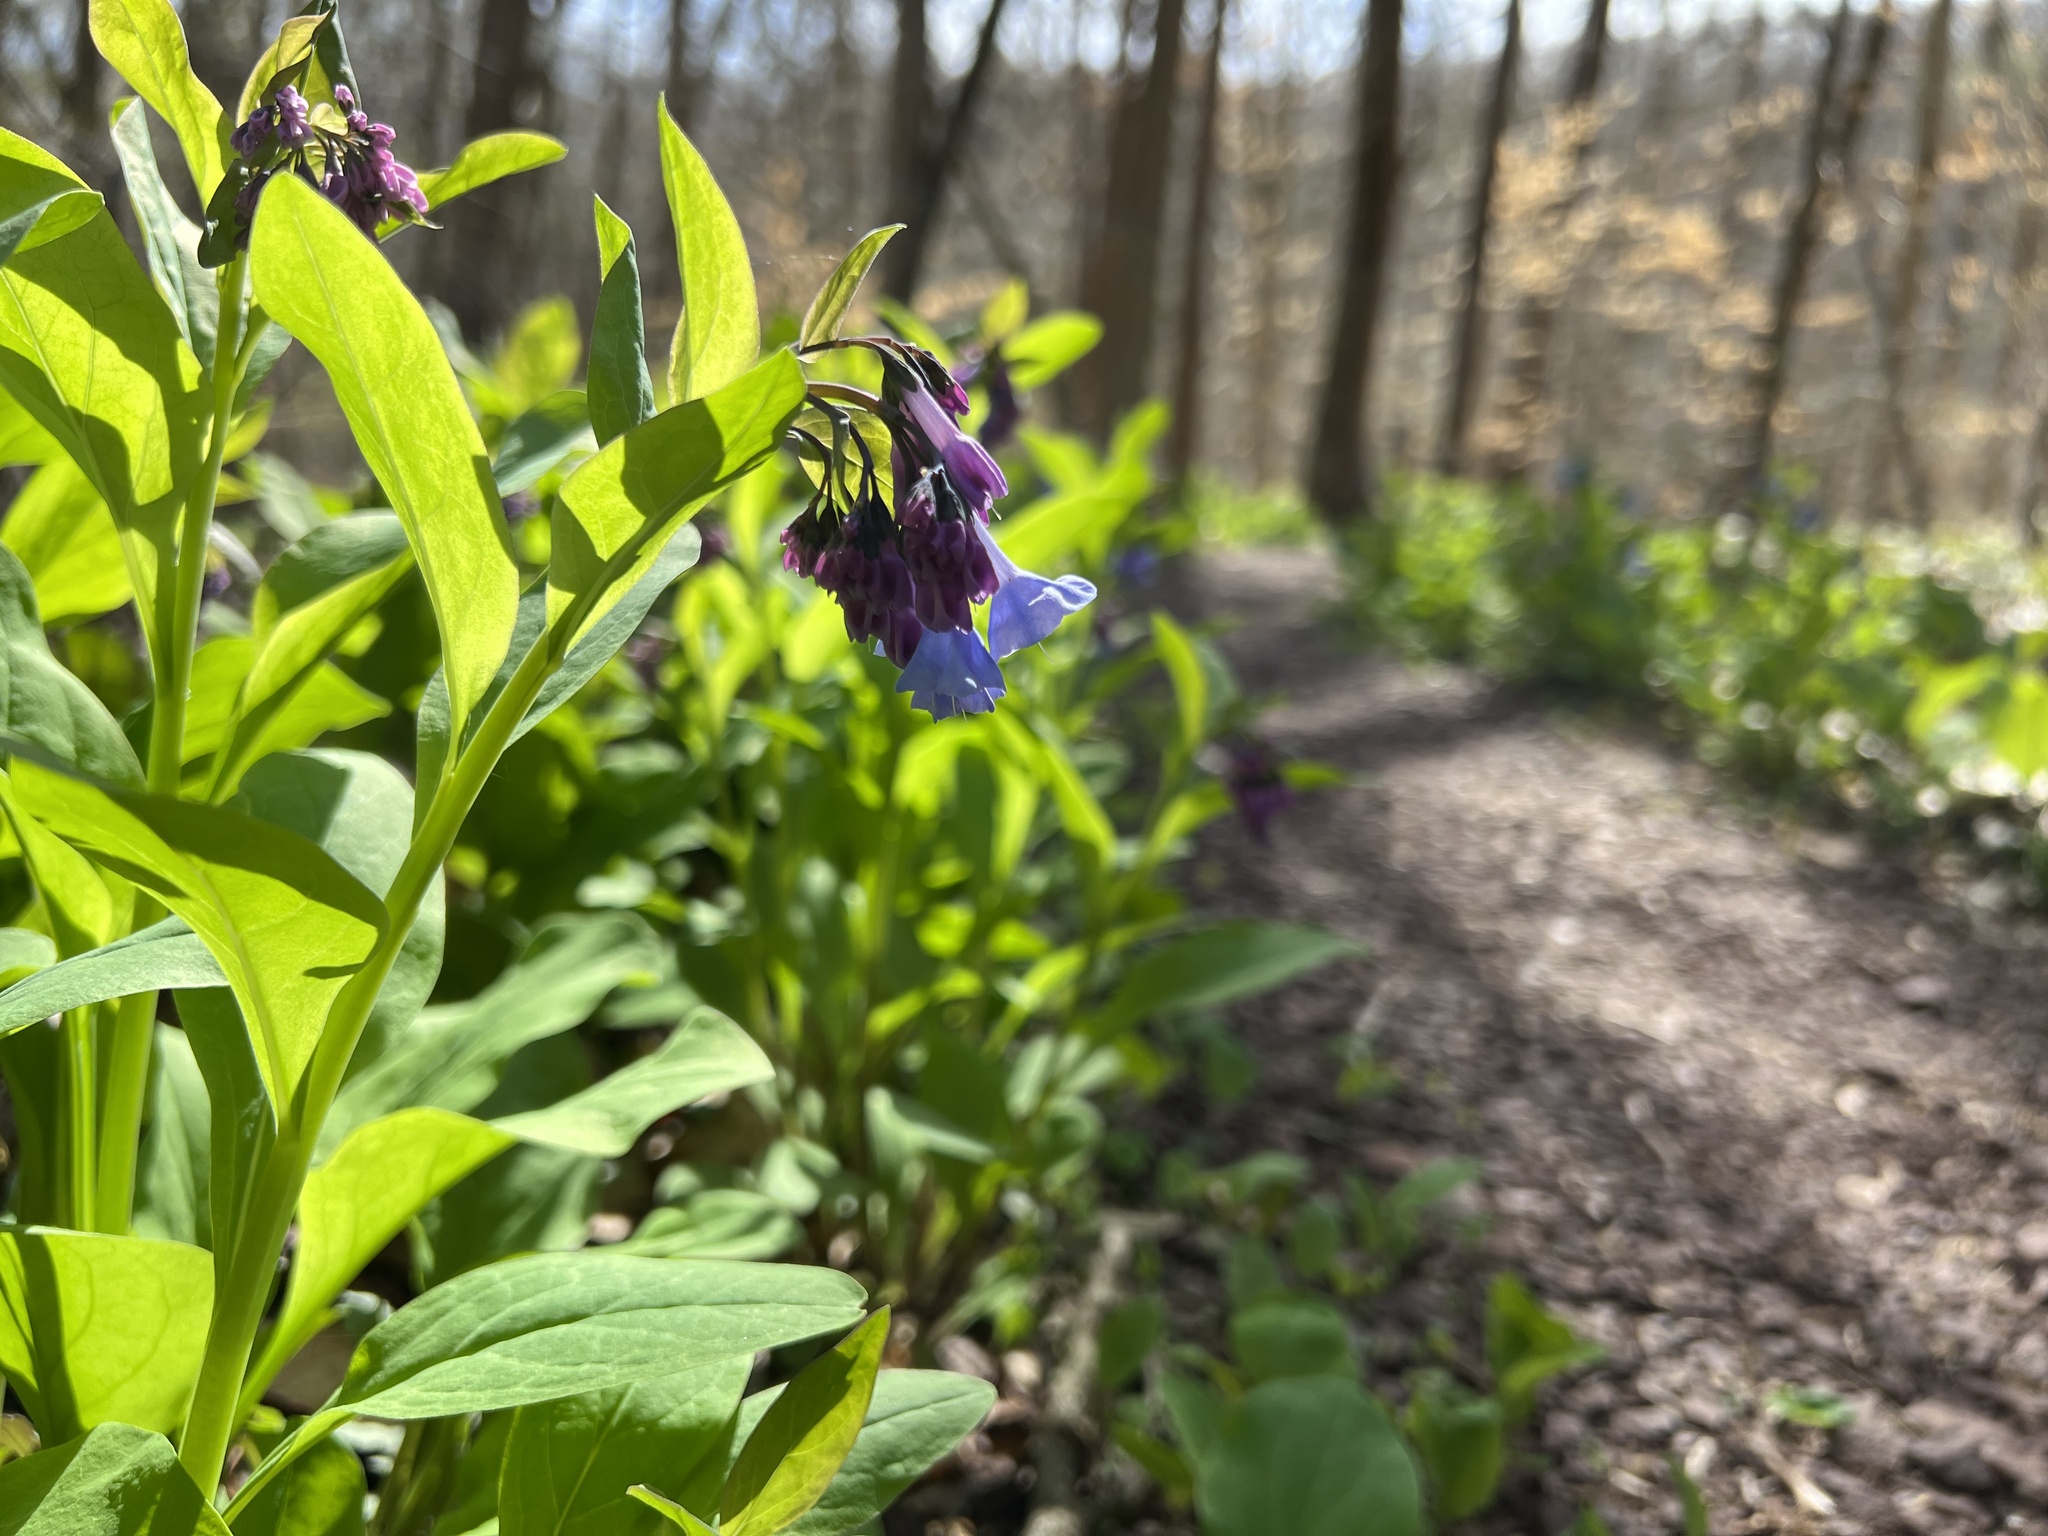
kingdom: Plantae
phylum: Tracheophyta
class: Magnoliopsida
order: Boraginales
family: Boraginaceae
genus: Mertensia
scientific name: Mertensia virginica
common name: Virginia bluebells
